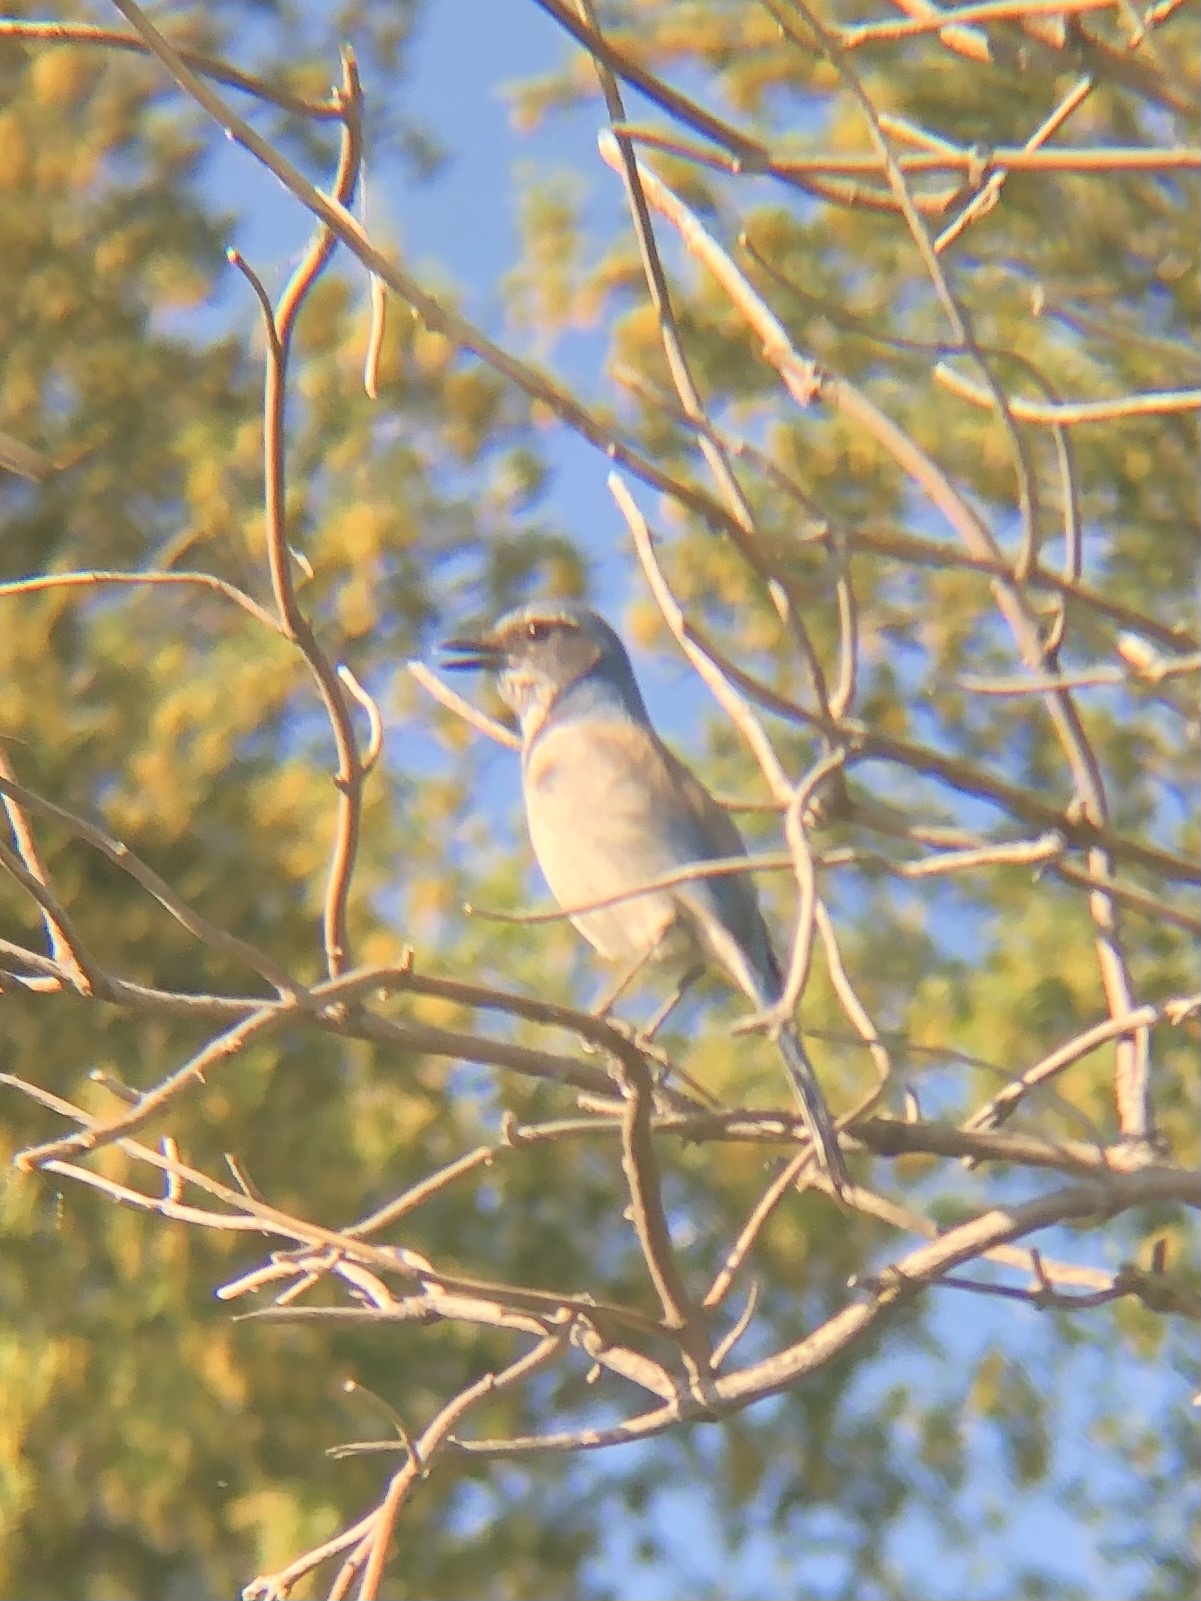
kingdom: Animalia
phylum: Chordata
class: Aves
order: Passeriformes
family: Corvidae
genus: Aphelocoma
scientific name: Aphelocoma californica
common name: California scrub-jay
